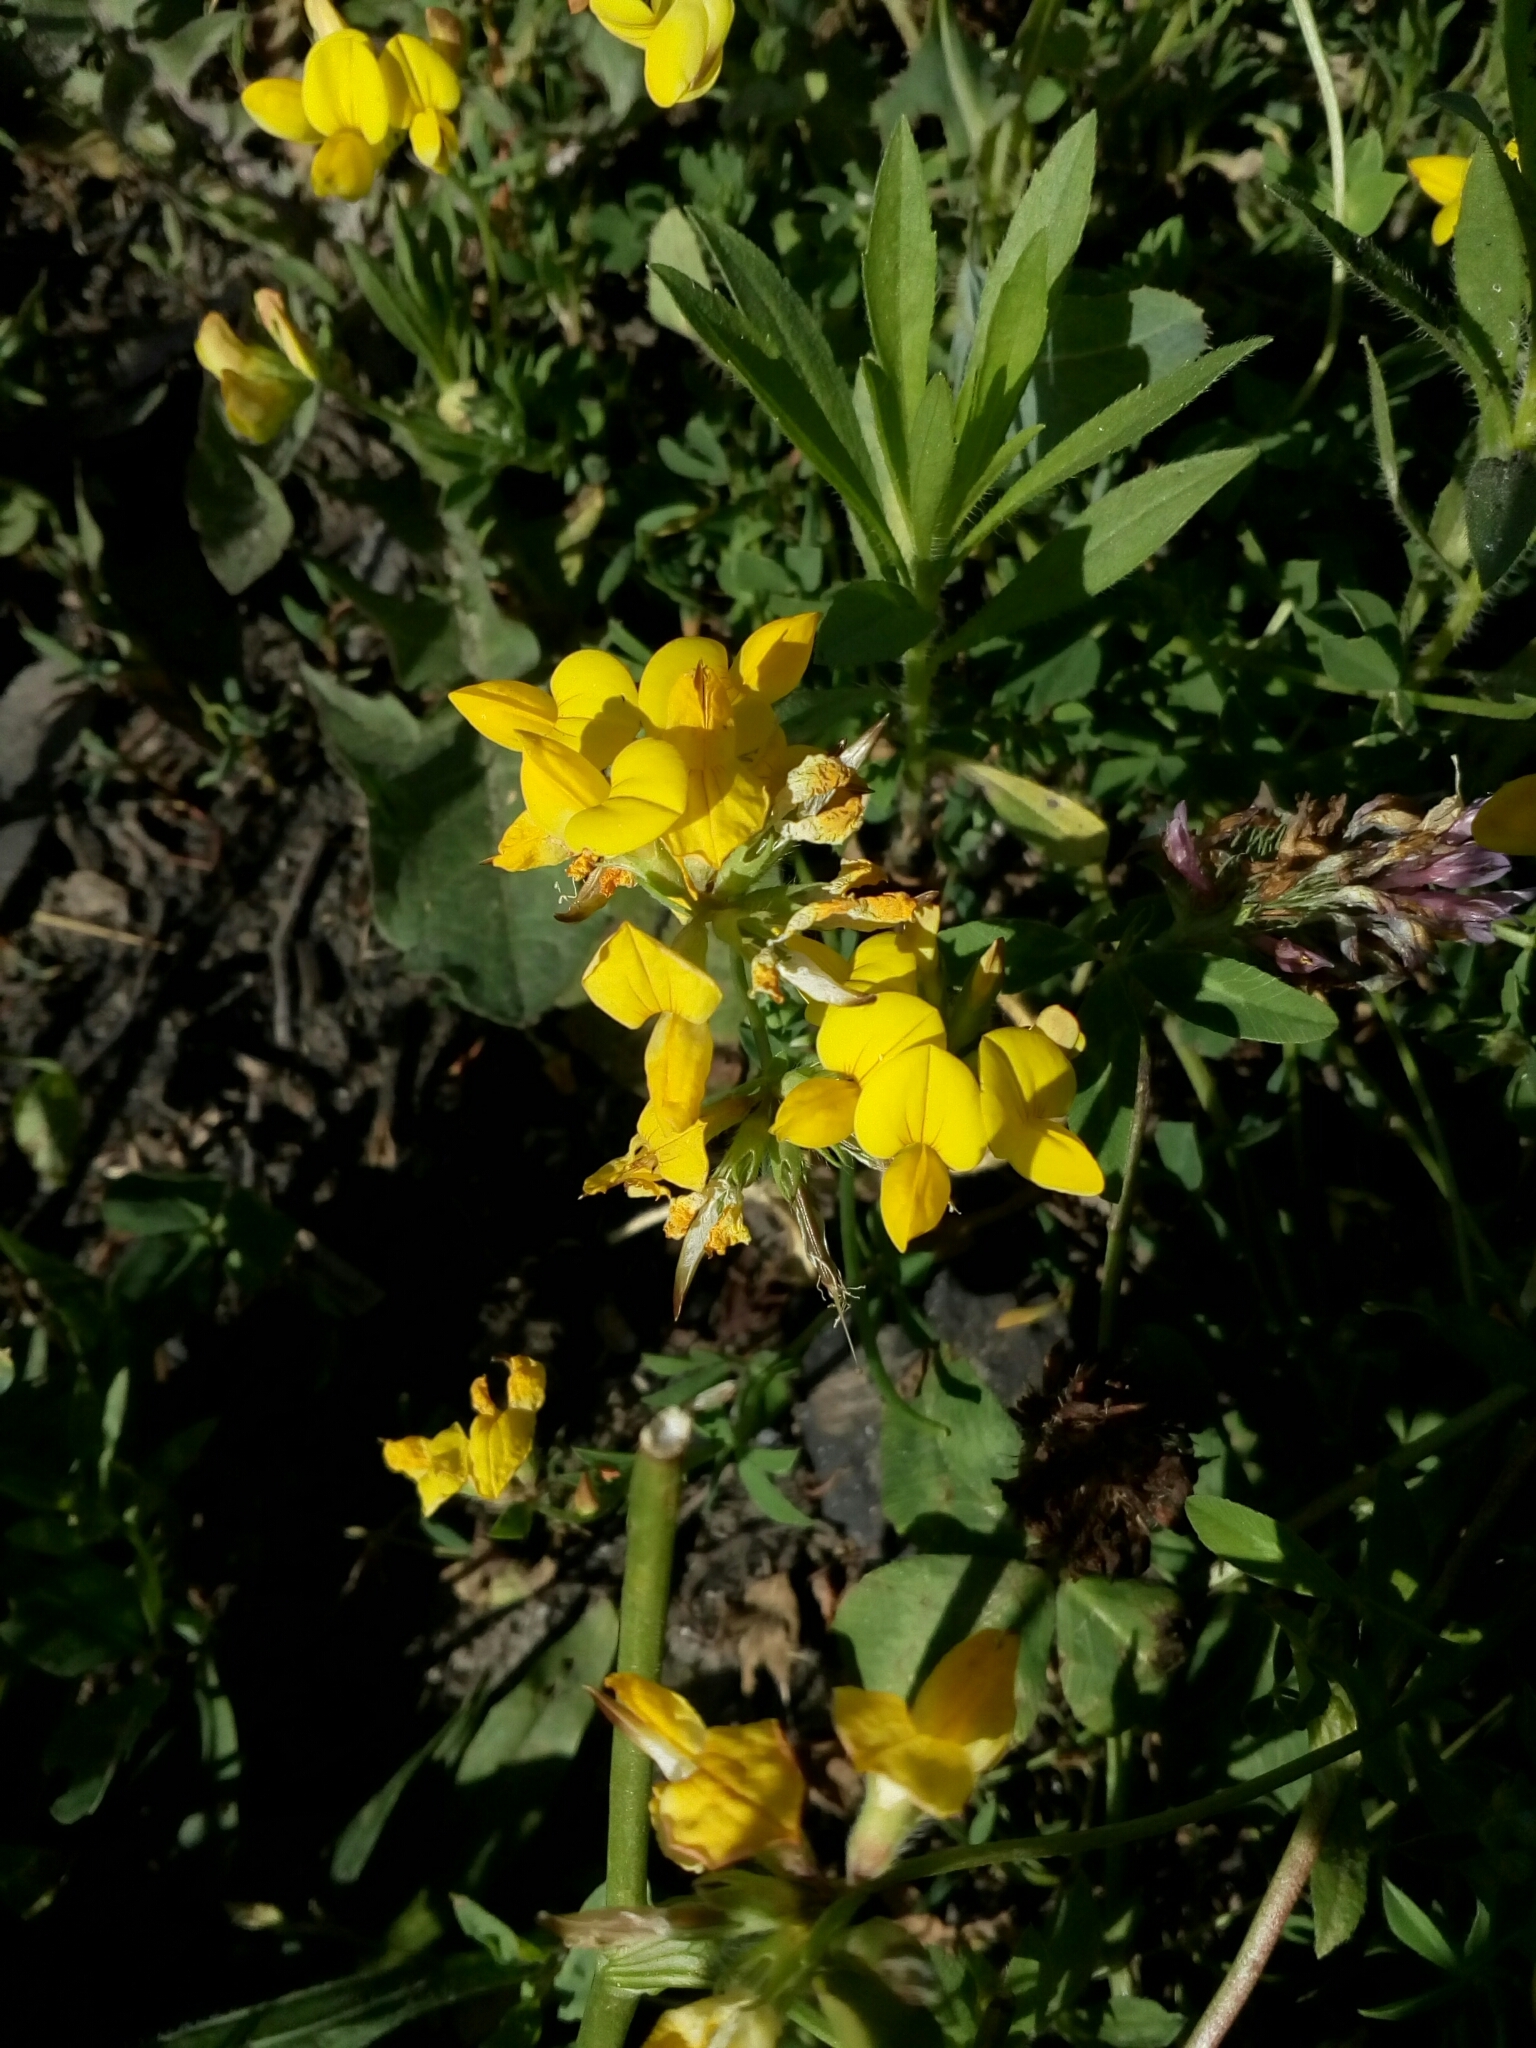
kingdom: Plantae
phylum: Tracheophyta
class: Magnoliopsida
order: Fabales
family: Fabaceae
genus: Lotus
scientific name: Lotus corniculatus
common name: Common bird's-foot-trefoil
